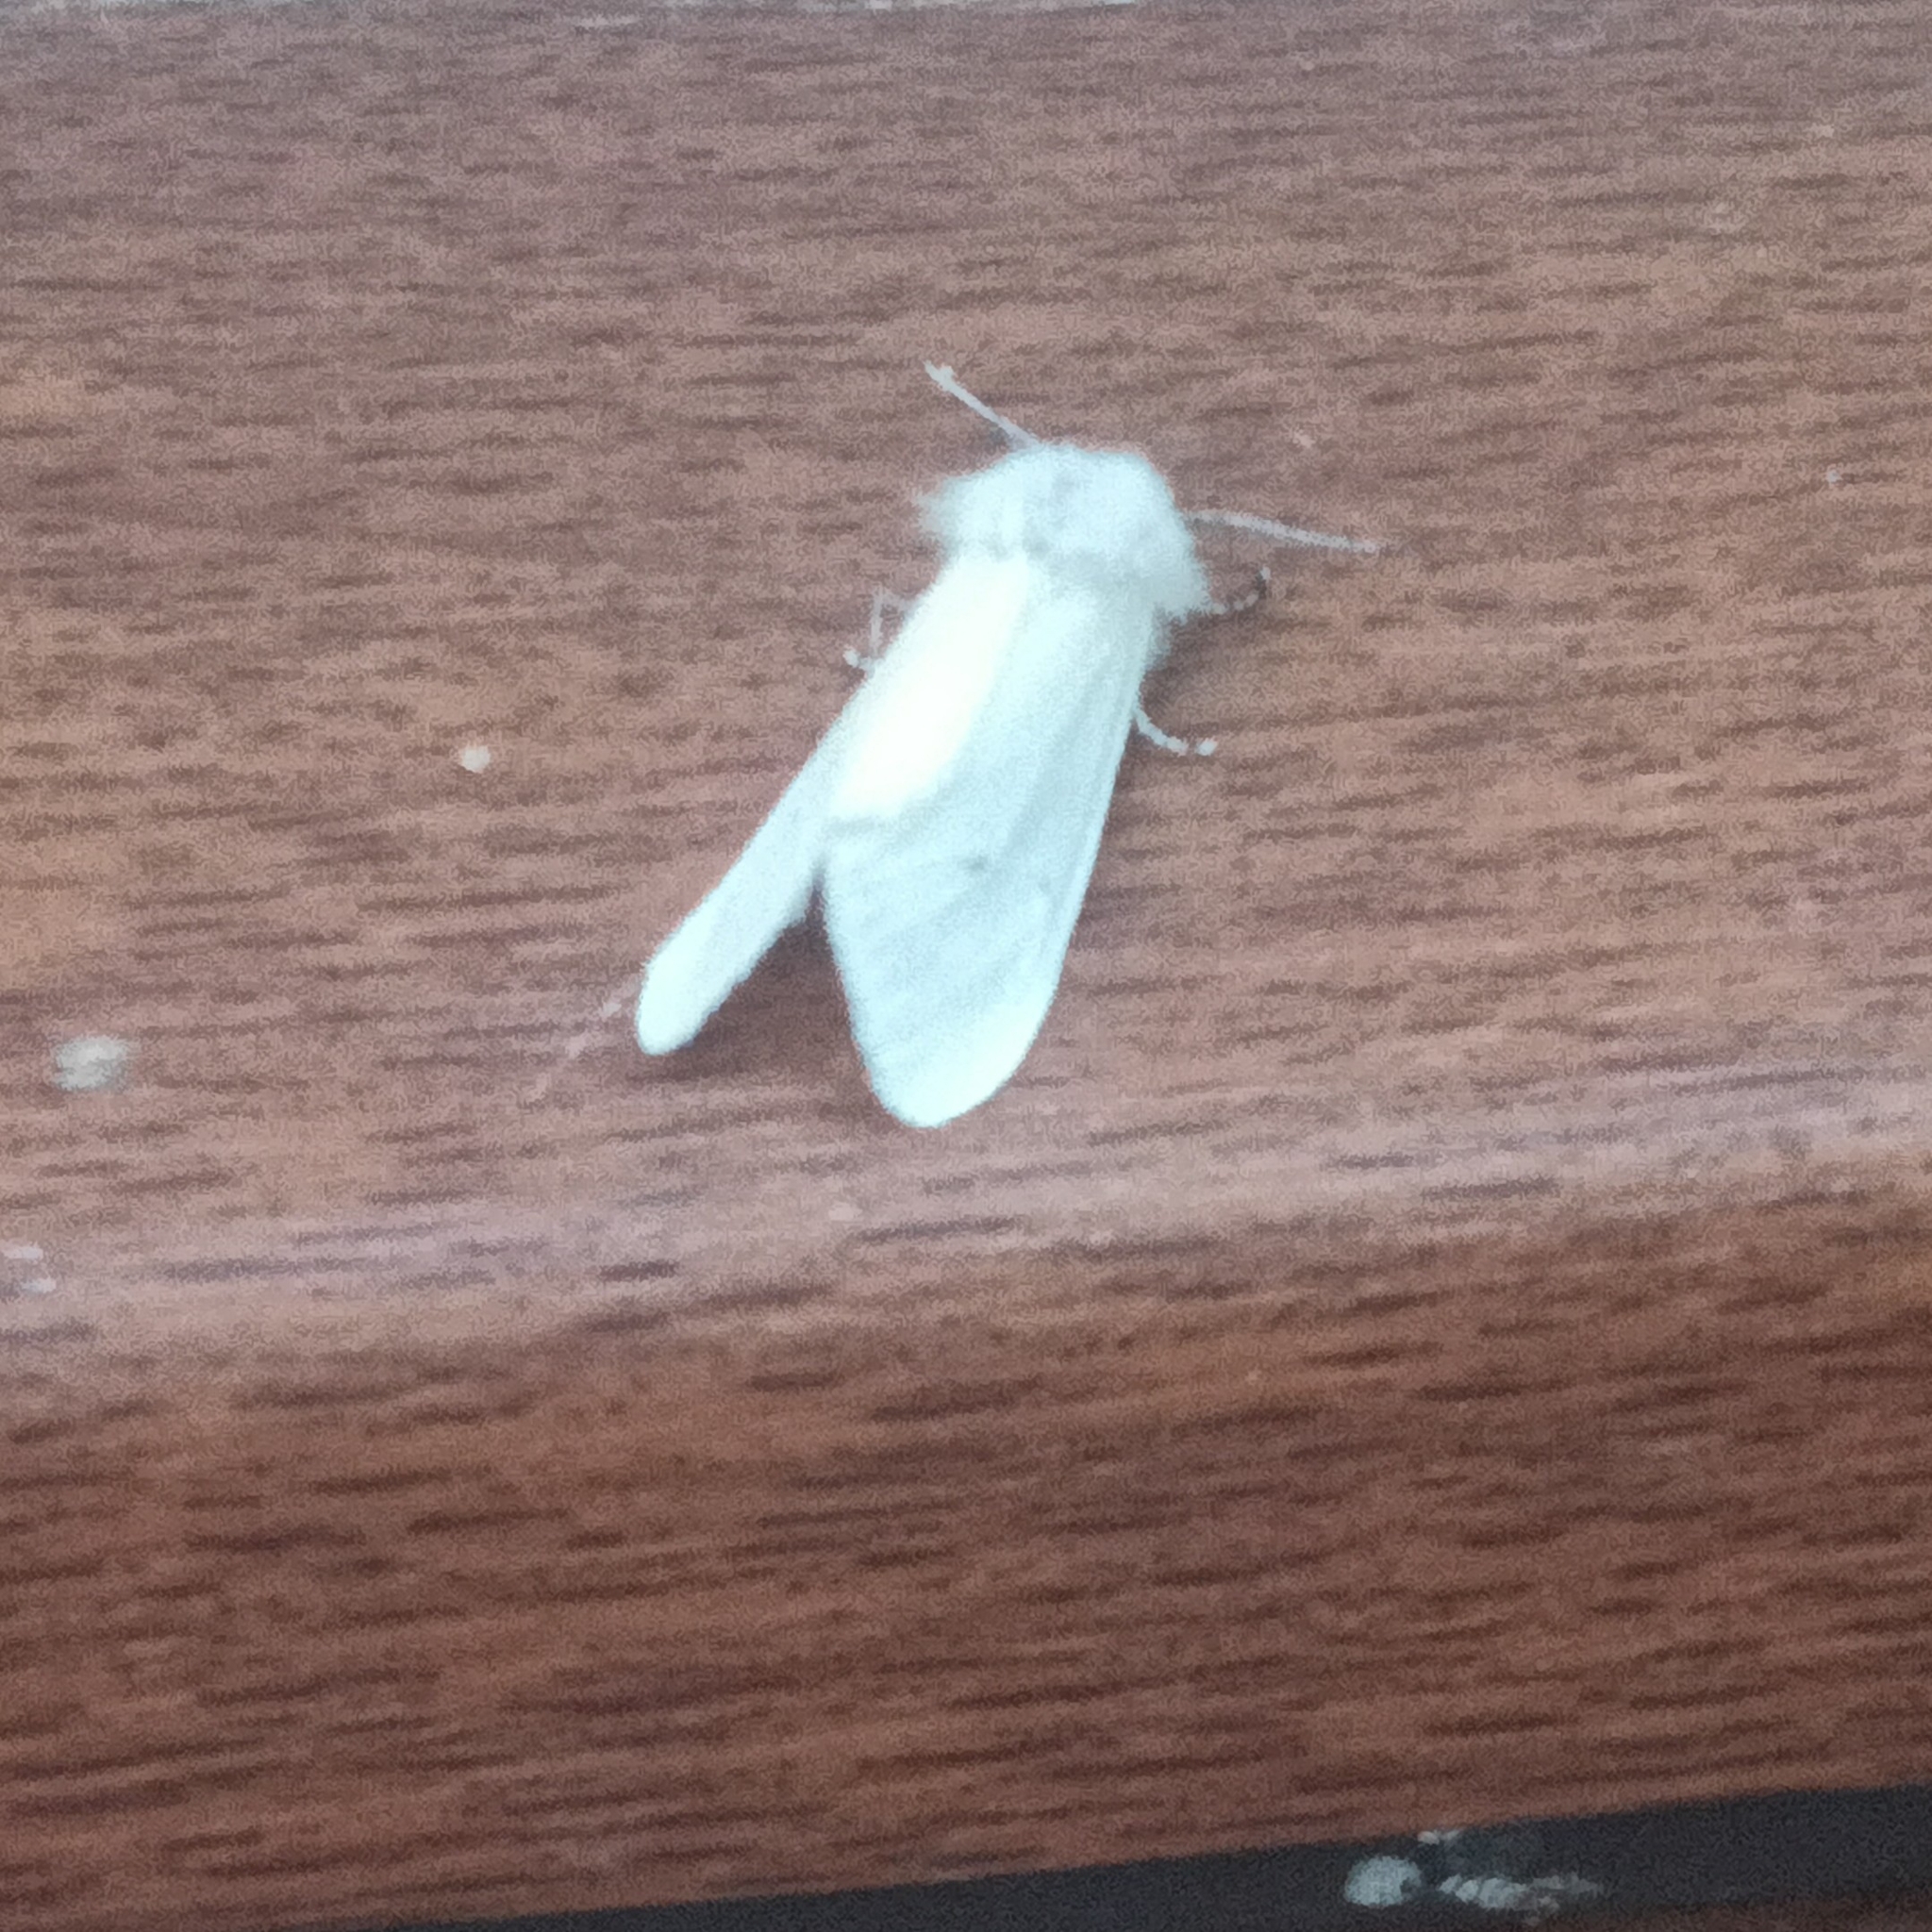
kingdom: Animalia
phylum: Arthropoda
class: Insecta
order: Lepidoptera
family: Erebidae
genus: Hyphantria
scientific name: Hyphantria cunea
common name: American white moth
